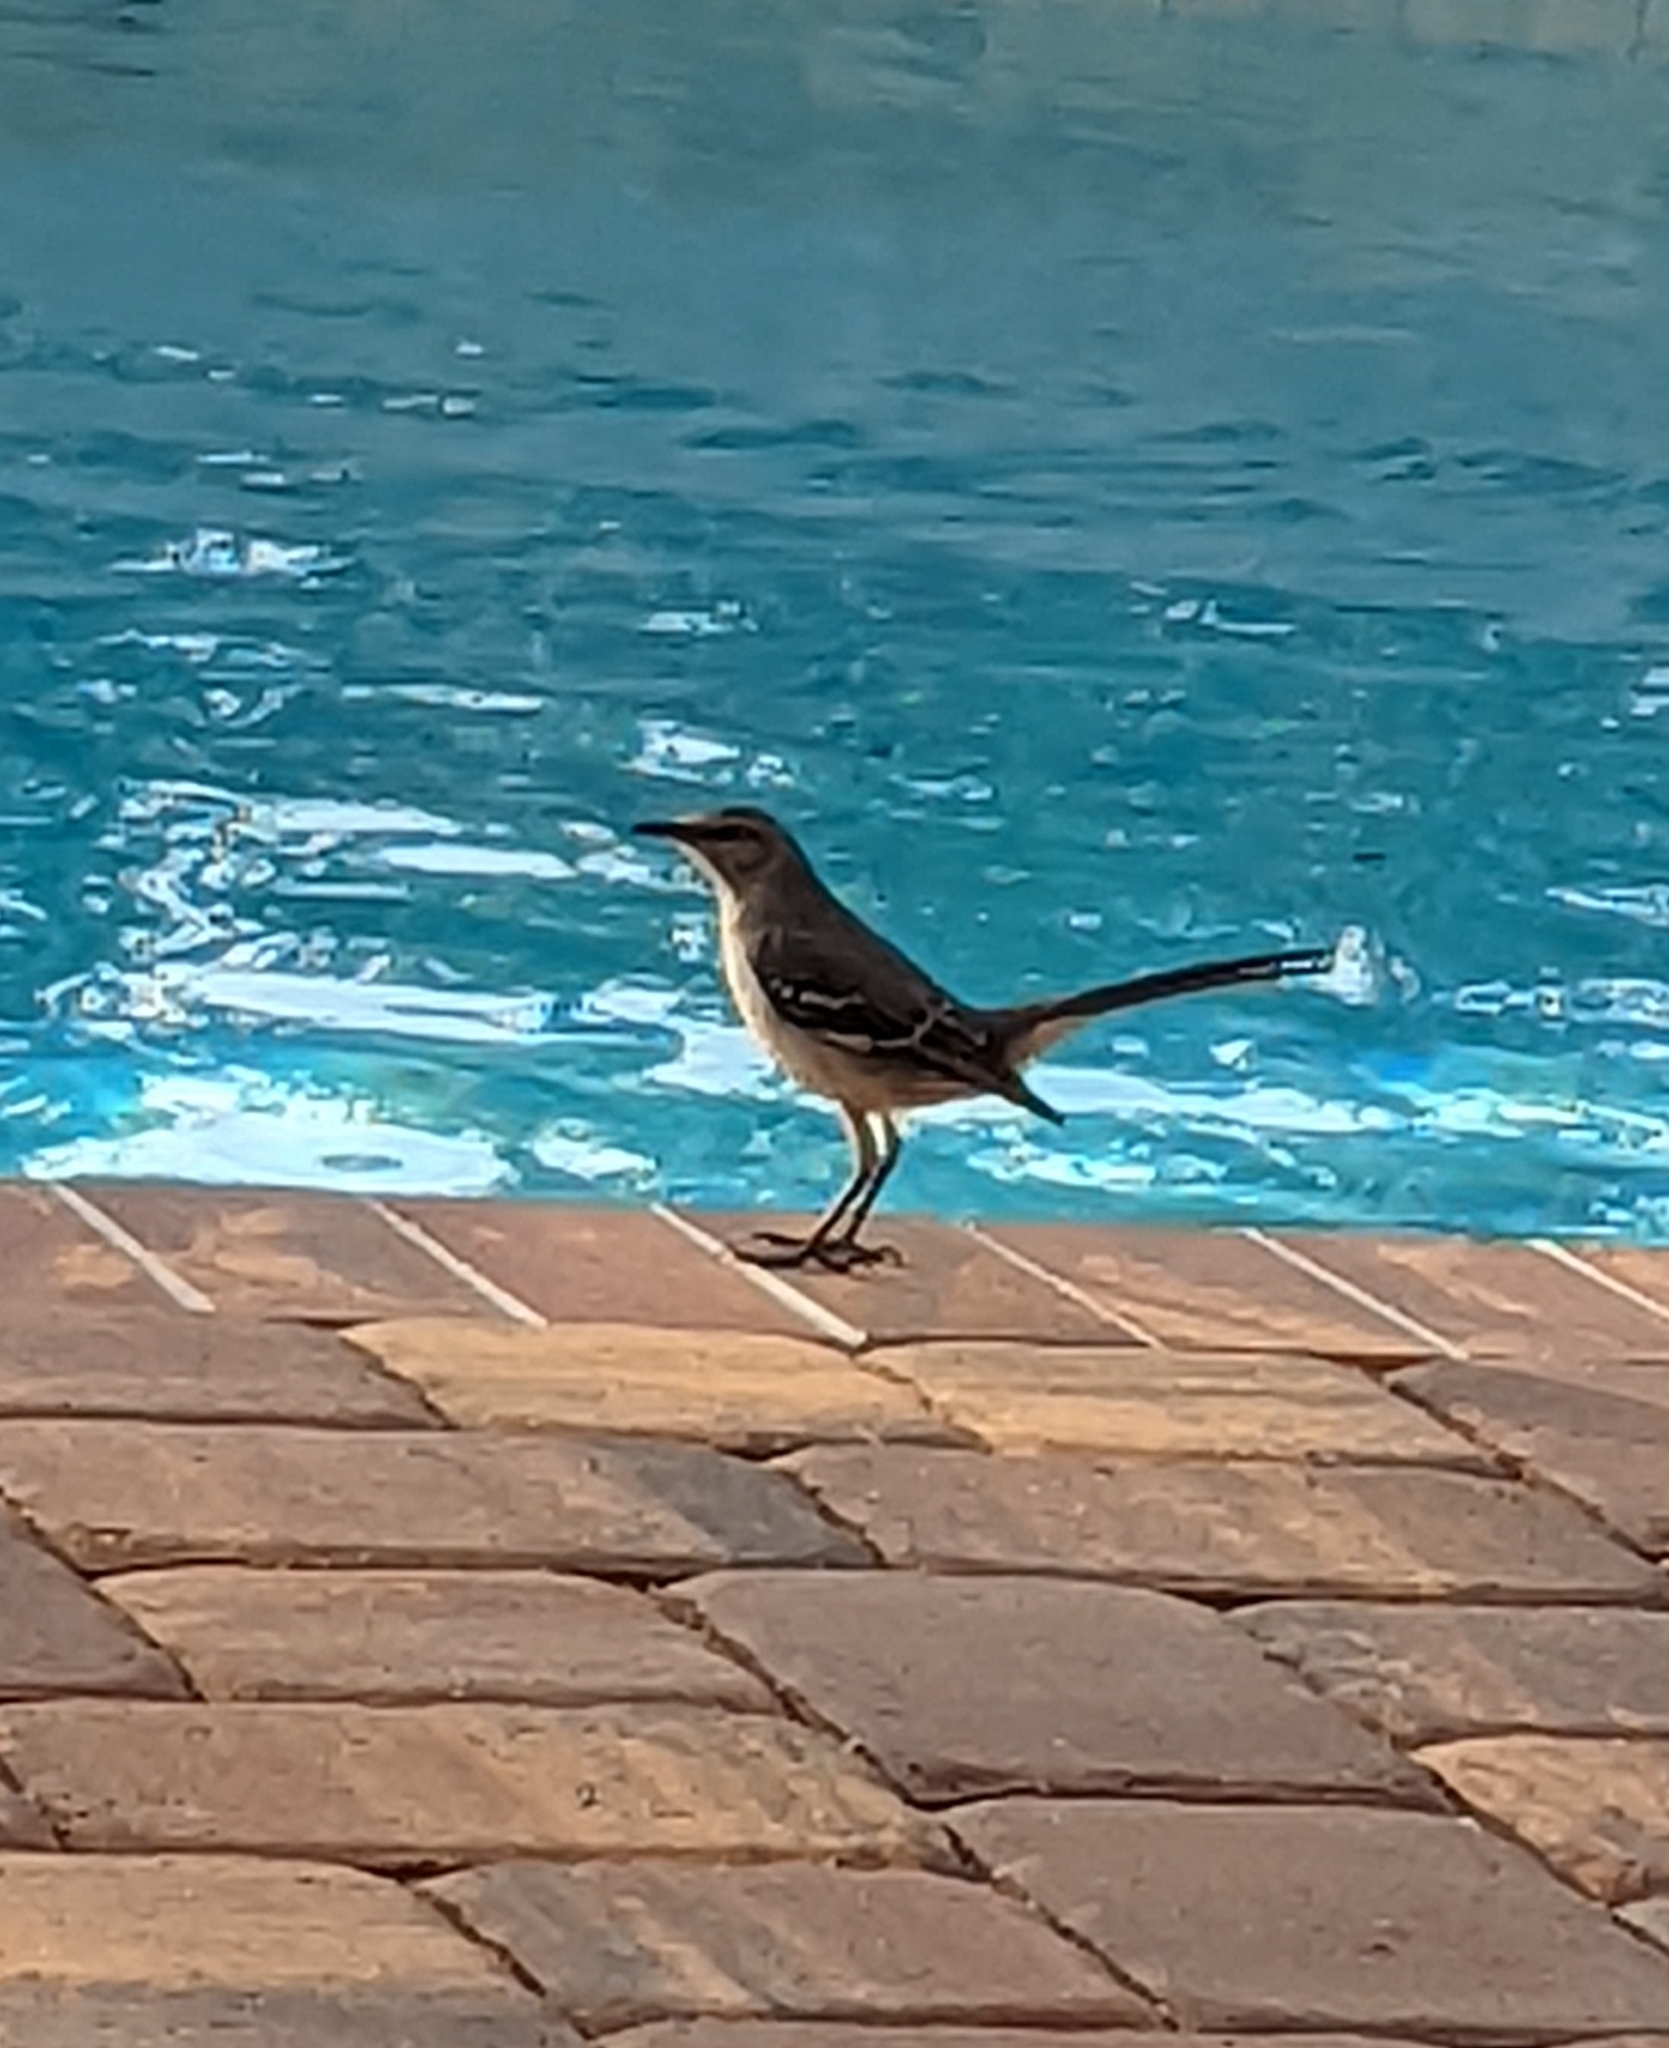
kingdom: Animalia
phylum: Chordata
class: Aves
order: Passeriformes
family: Mimidae
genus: Mimus
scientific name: Mimus polyglottos
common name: Northern mockingbird
